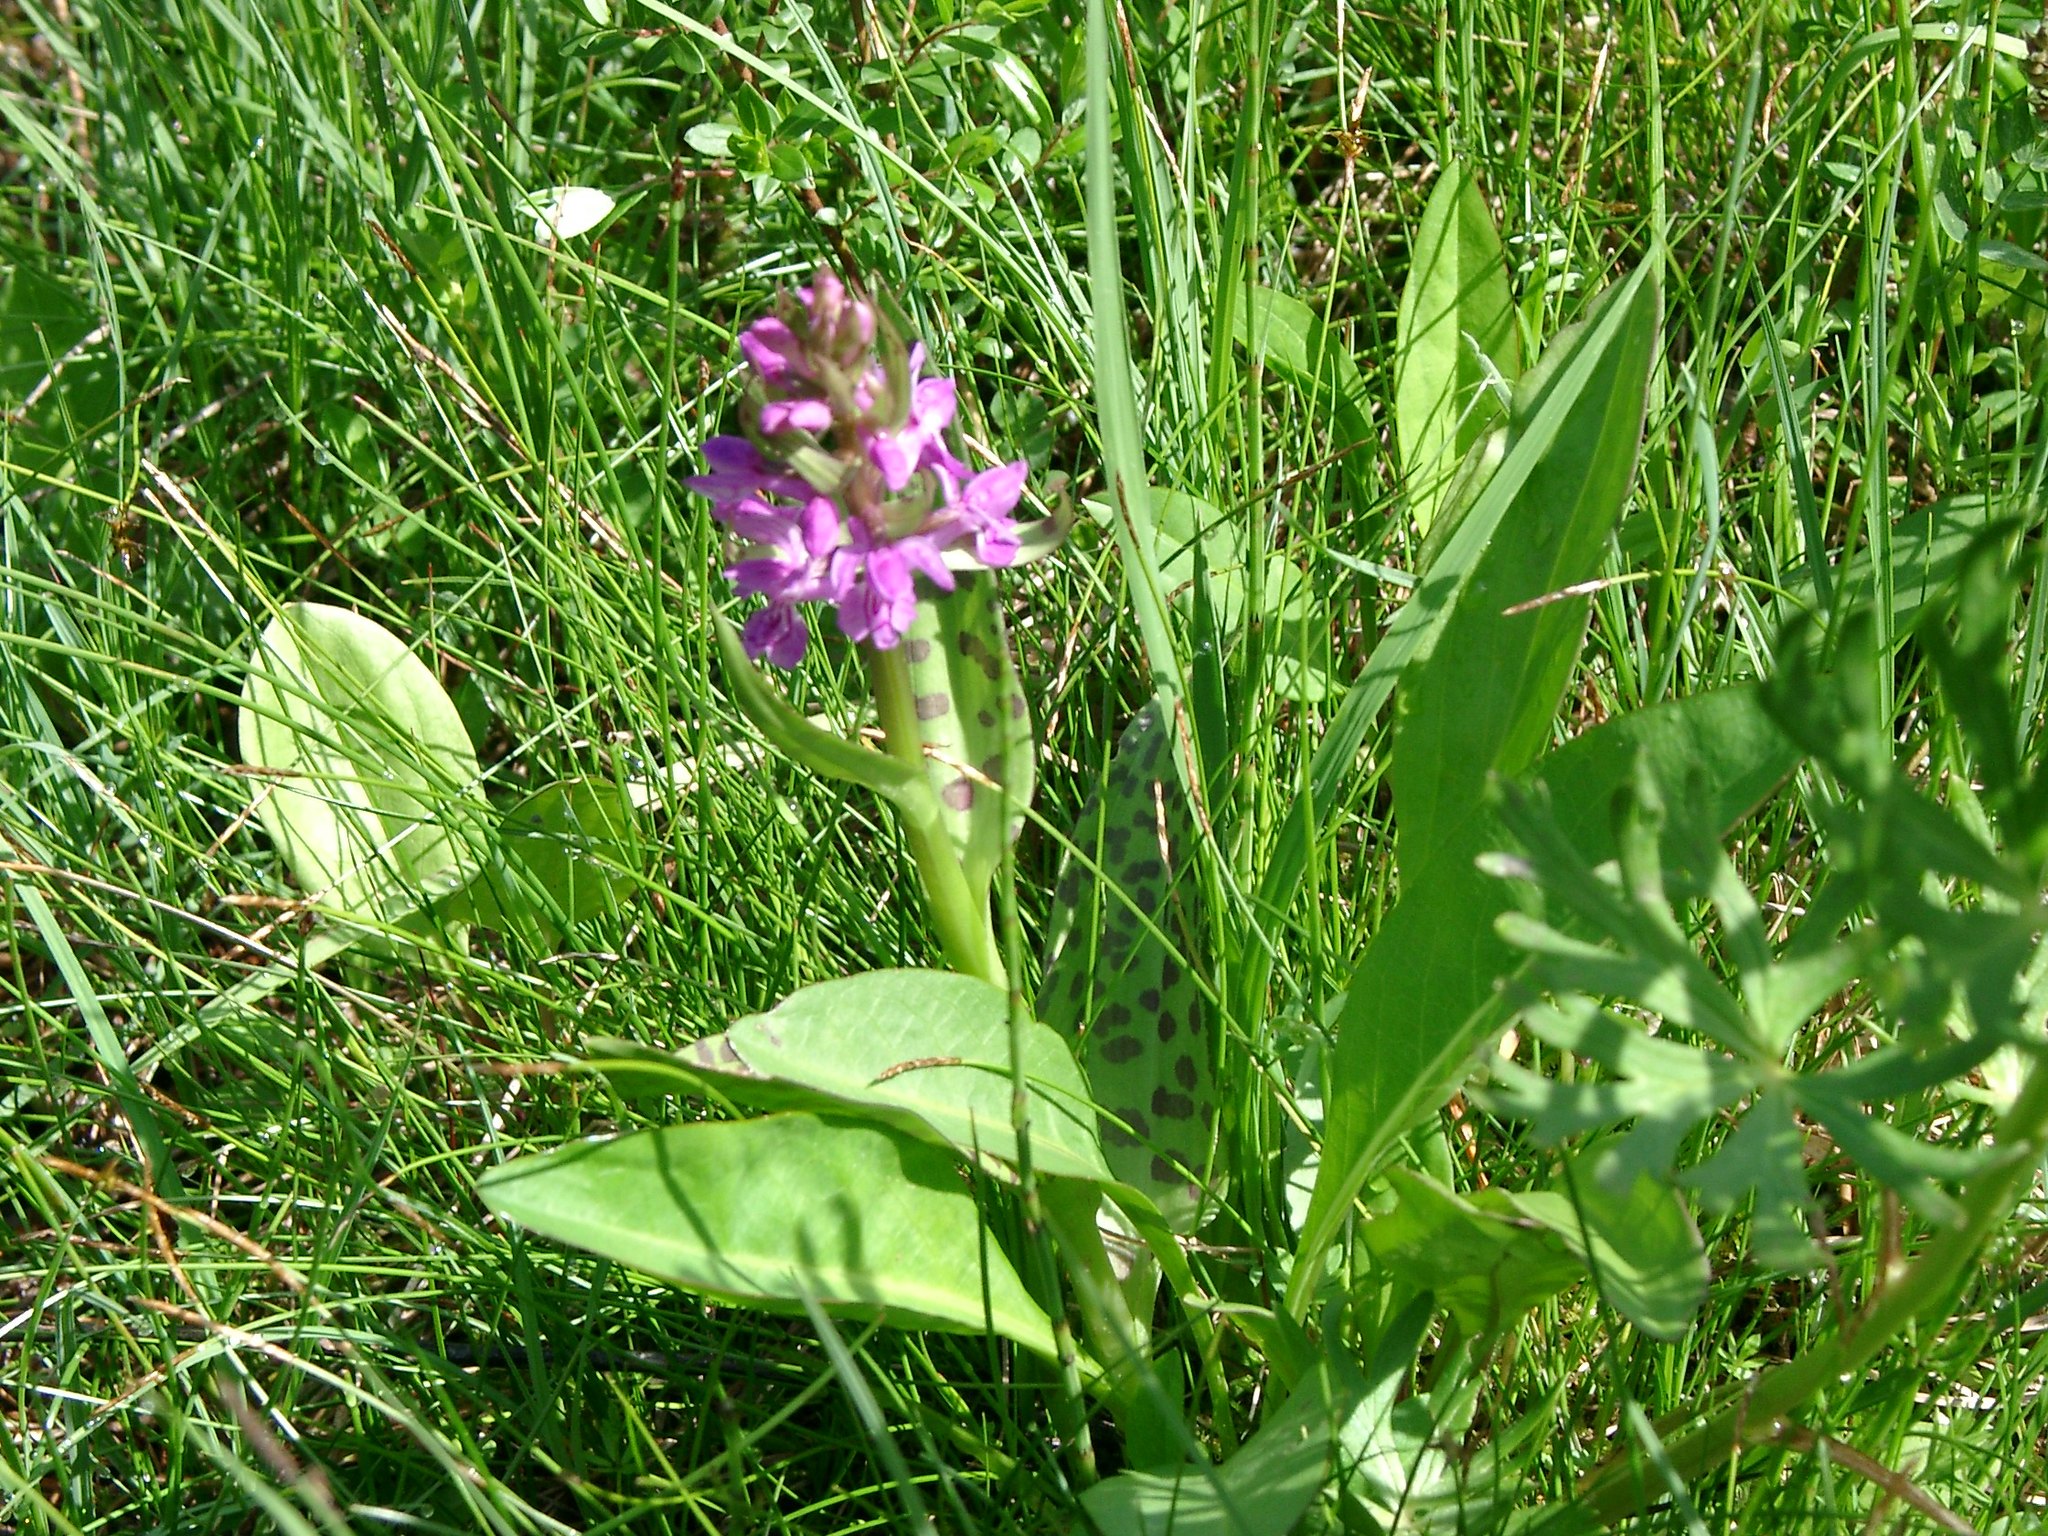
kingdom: Plantae
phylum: Tracheophyta
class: Liliopsida
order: Asparagales
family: Orchidaceae
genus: Dactylorhiza
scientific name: Dactylorhiza majalis
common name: Marsh orchid
